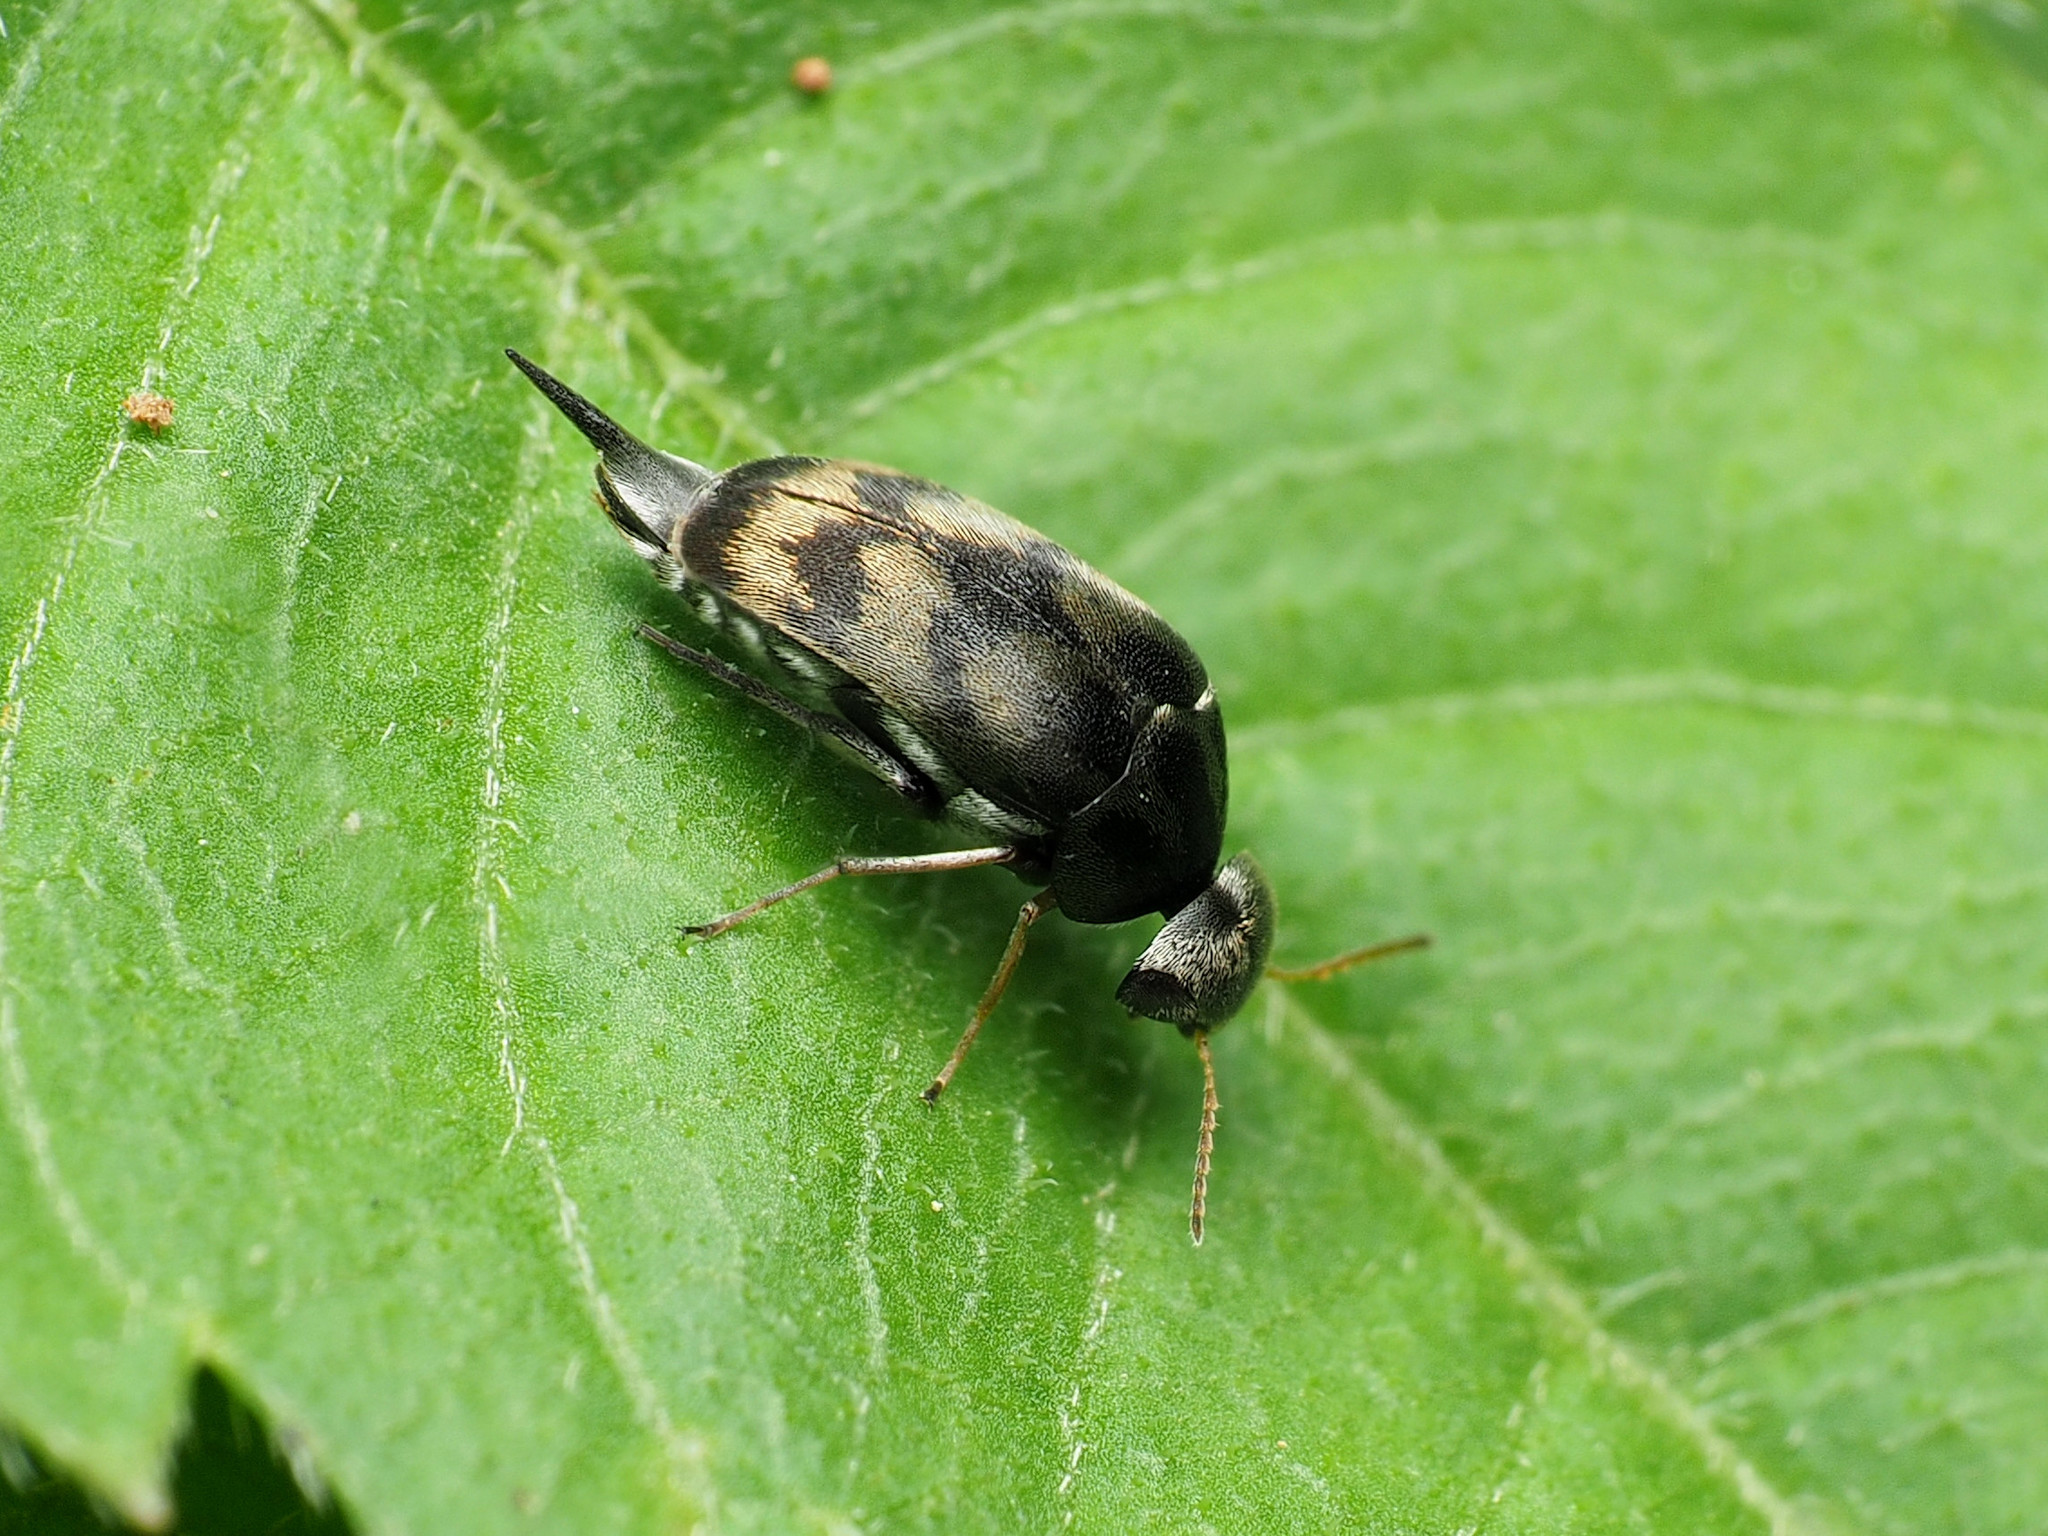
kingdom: Animalia
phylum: Arthropoda
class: Insecta
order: Coleoptera
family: Mordellidae
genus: Paramordellaria
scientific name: Paramordellaria triloba
